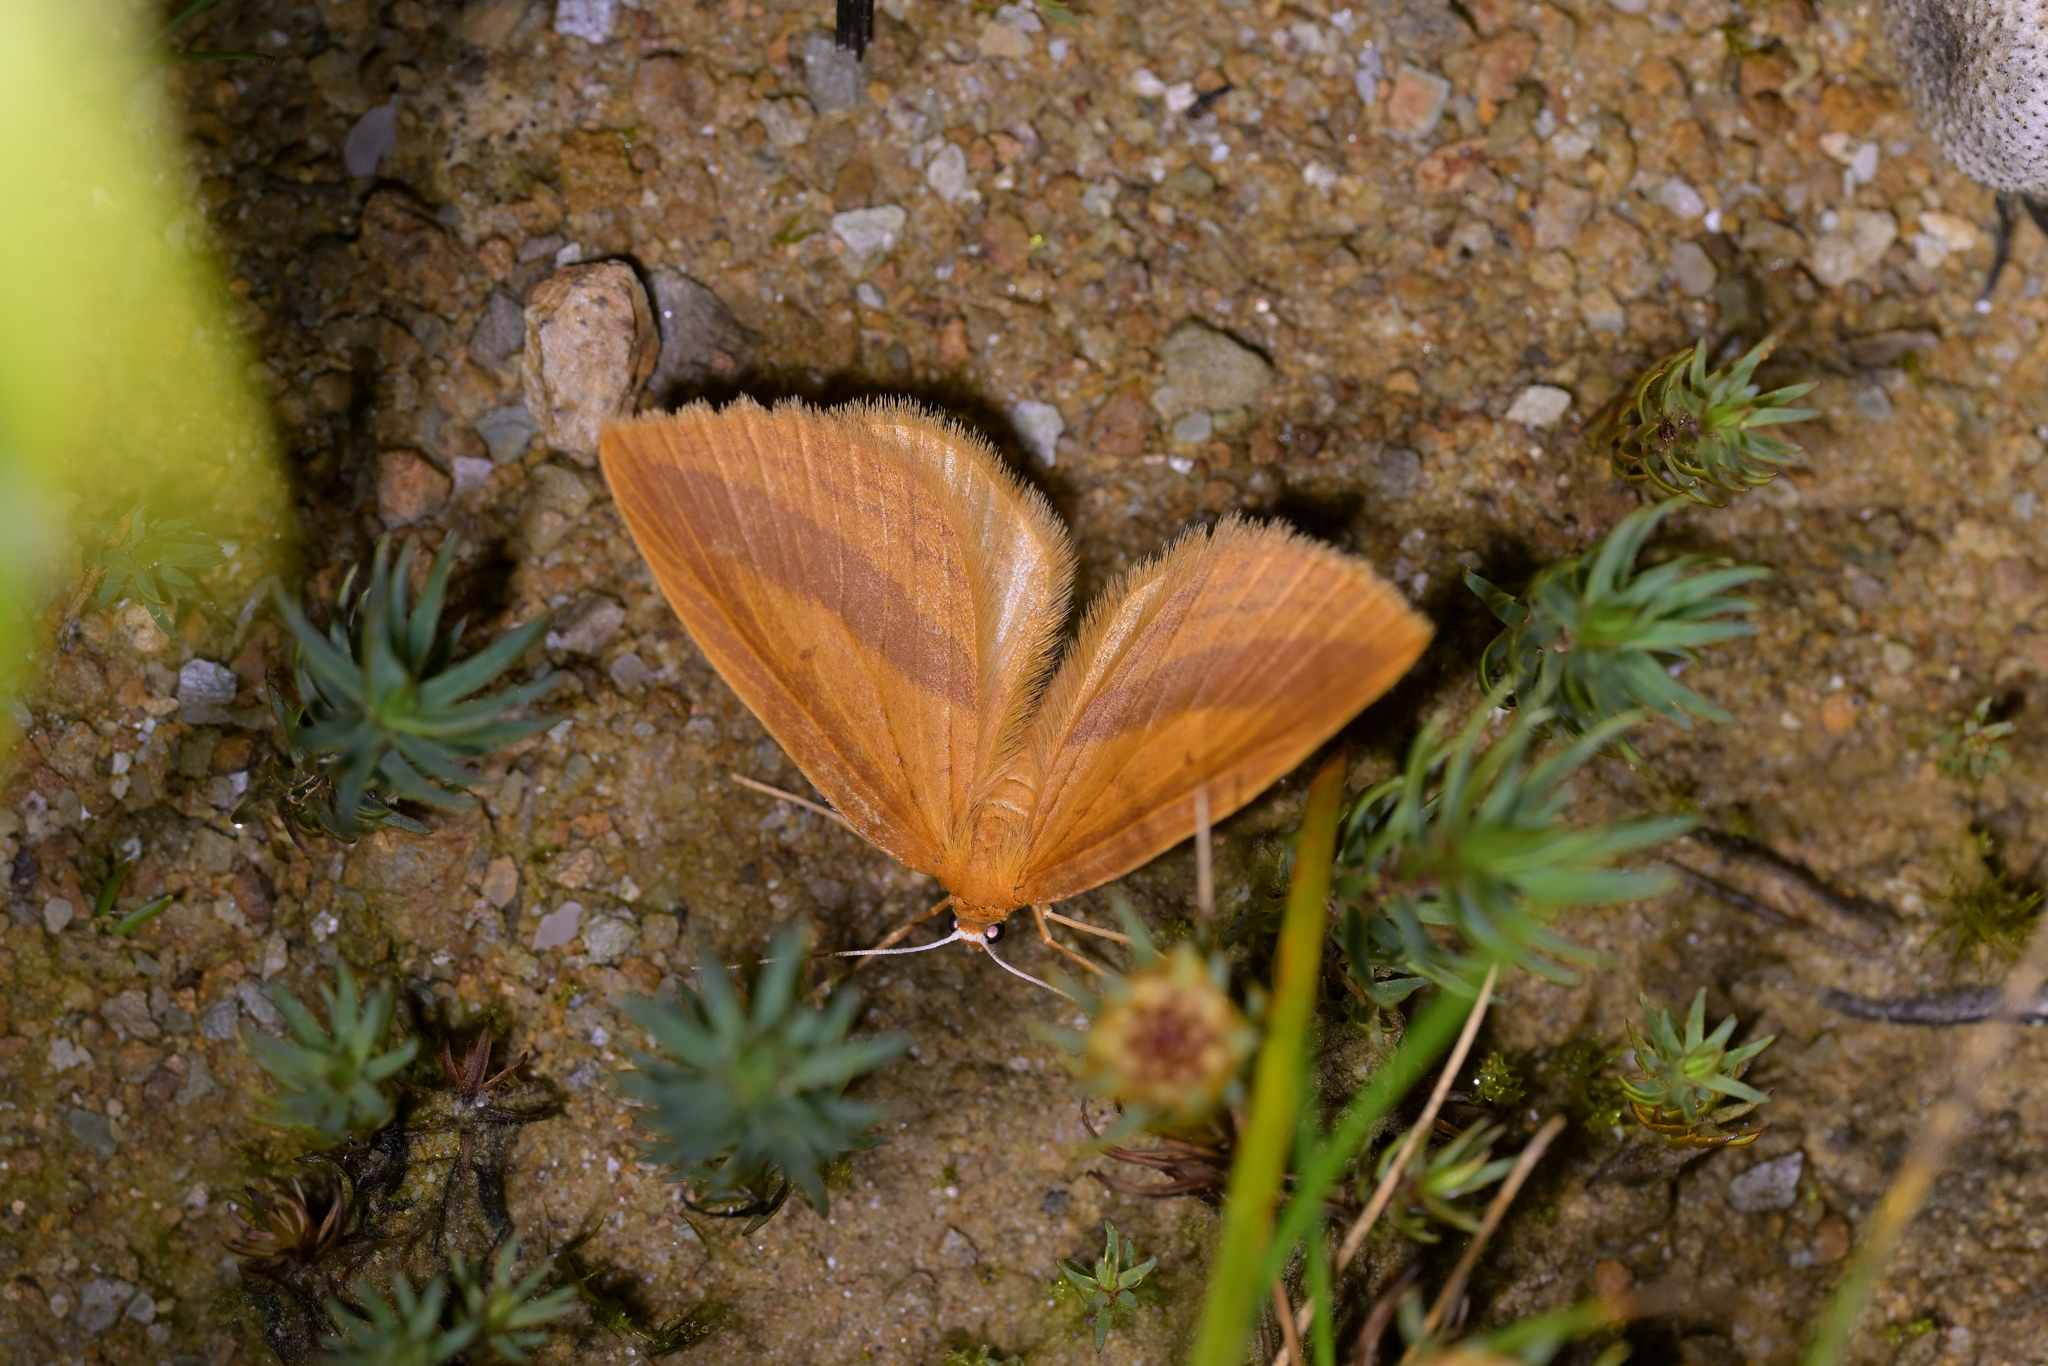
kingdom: Animalia
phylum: Arthropoda
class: Insecta
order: Lepidoptera
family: Geometridae
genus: Epiphryne
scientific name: Epiphryne charidema
